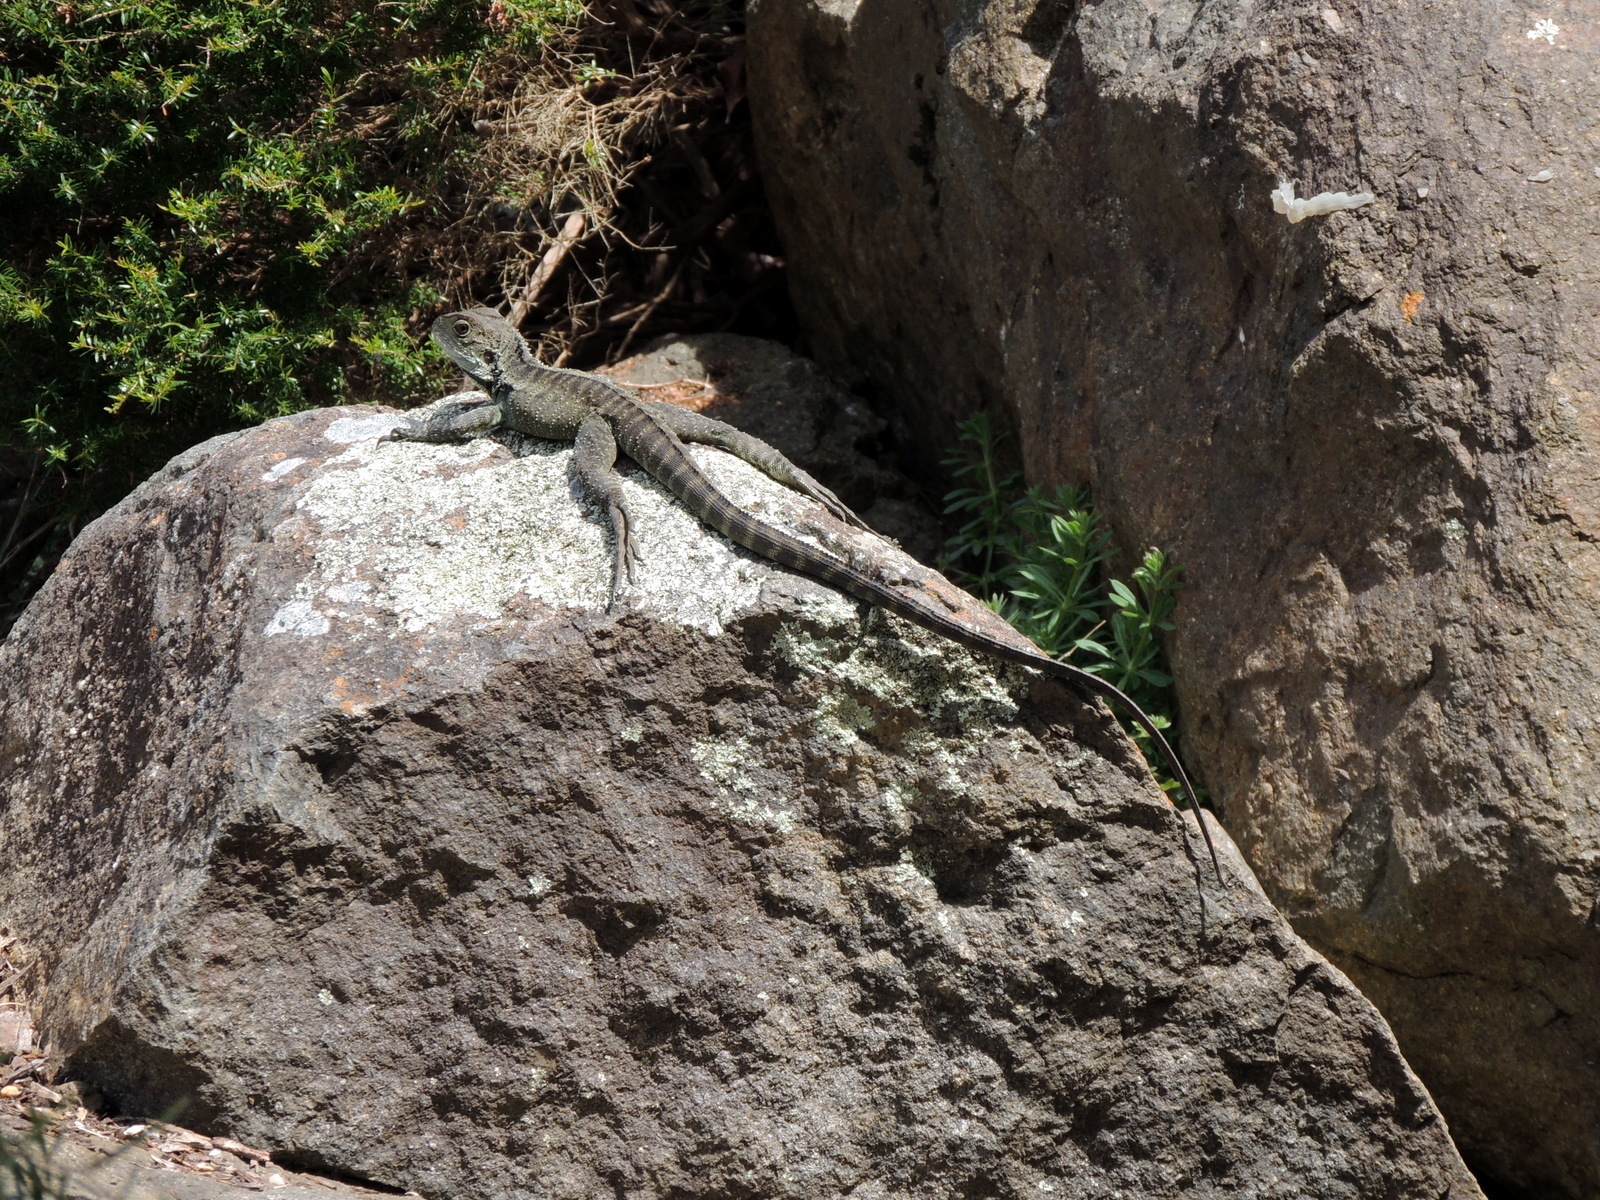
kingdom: Animalia
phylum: Chordata
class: Squamata
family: Agamidae
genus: Intellagama
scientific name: Intellagama lesueurii
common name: Eastern water dragon
